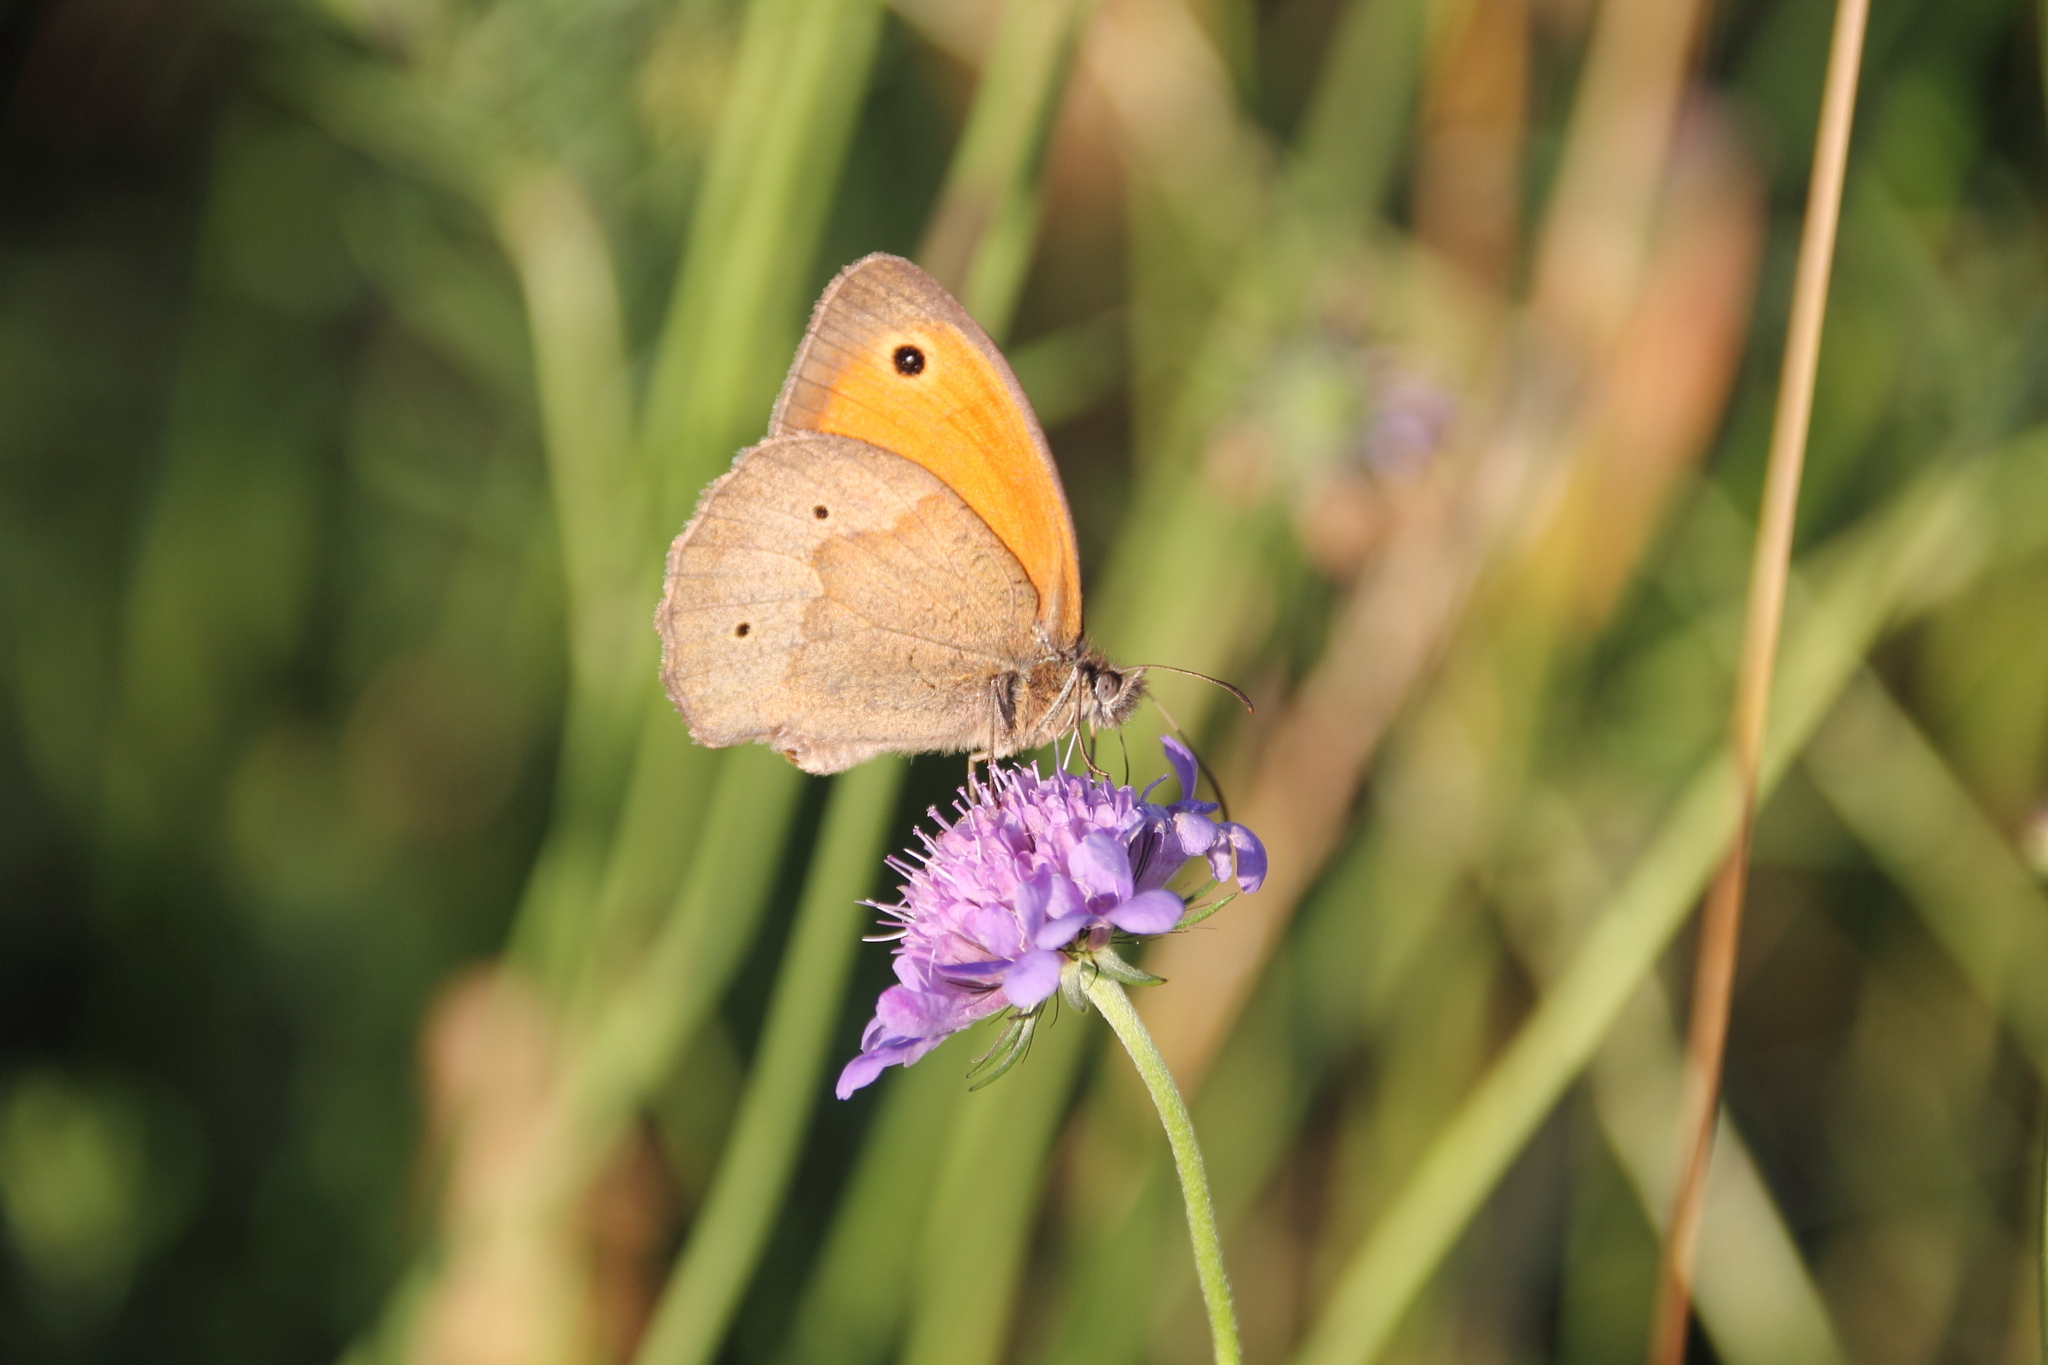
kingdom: Animalia
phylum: Arthropoda
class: Insecta
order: Lepidoptera
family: Nymphalidae
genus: Maniola
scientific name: Maniola jurtina
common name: Meadow brown
